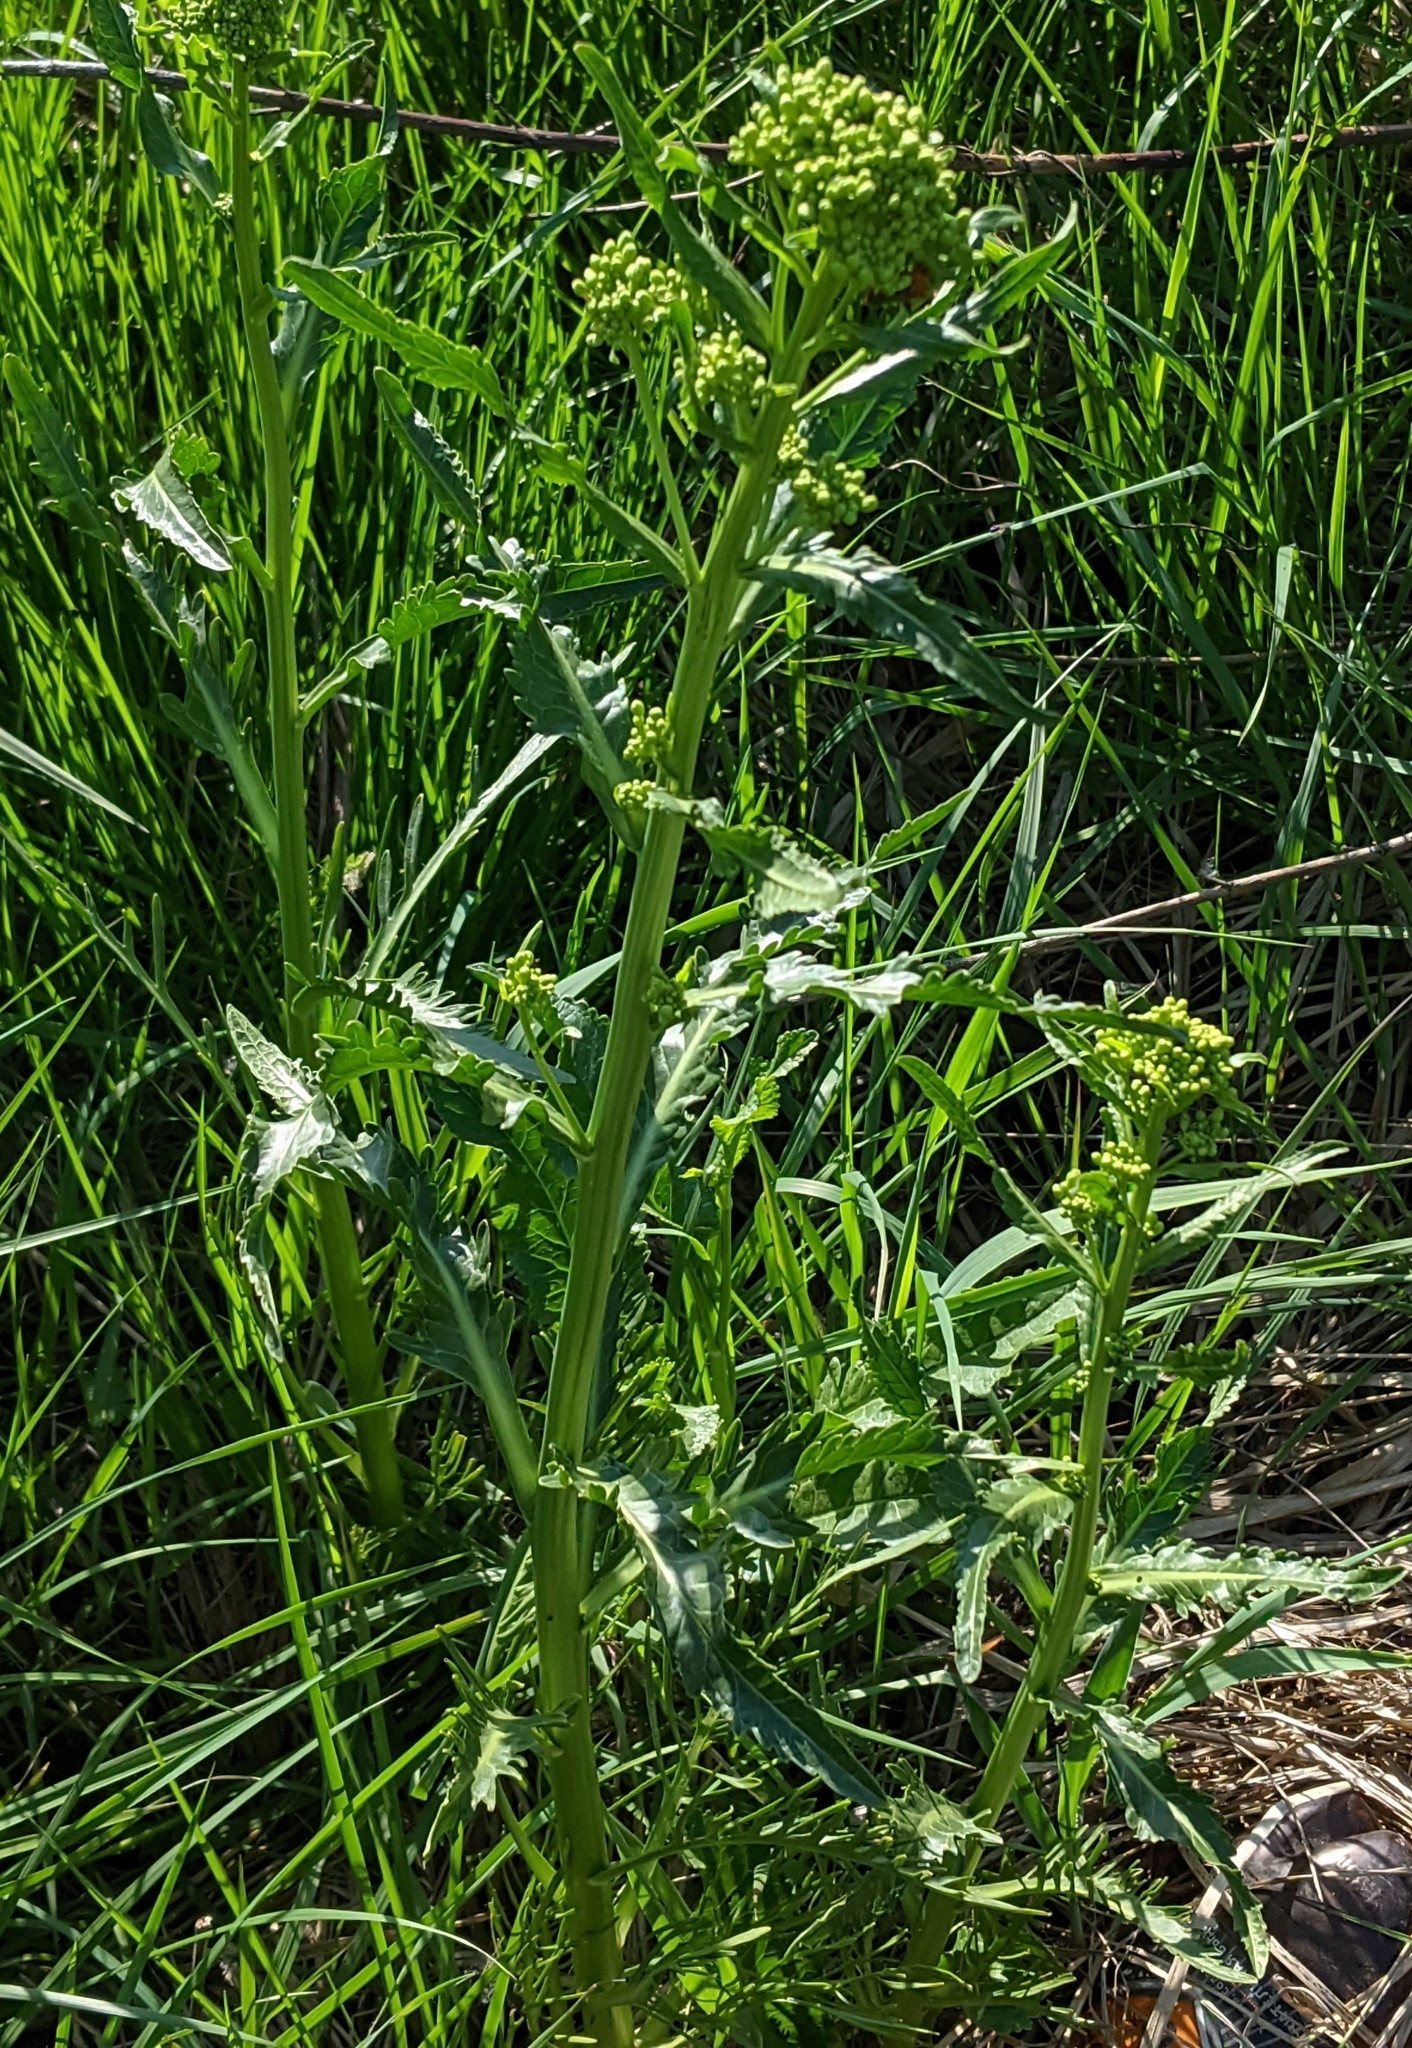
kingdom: Plantae
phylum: Tracheophyta
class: Magnoliopsida
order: Brassicales
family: Brassicaceae
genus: Armoracia
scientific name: Armoracia rusticana
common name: Horseradish
